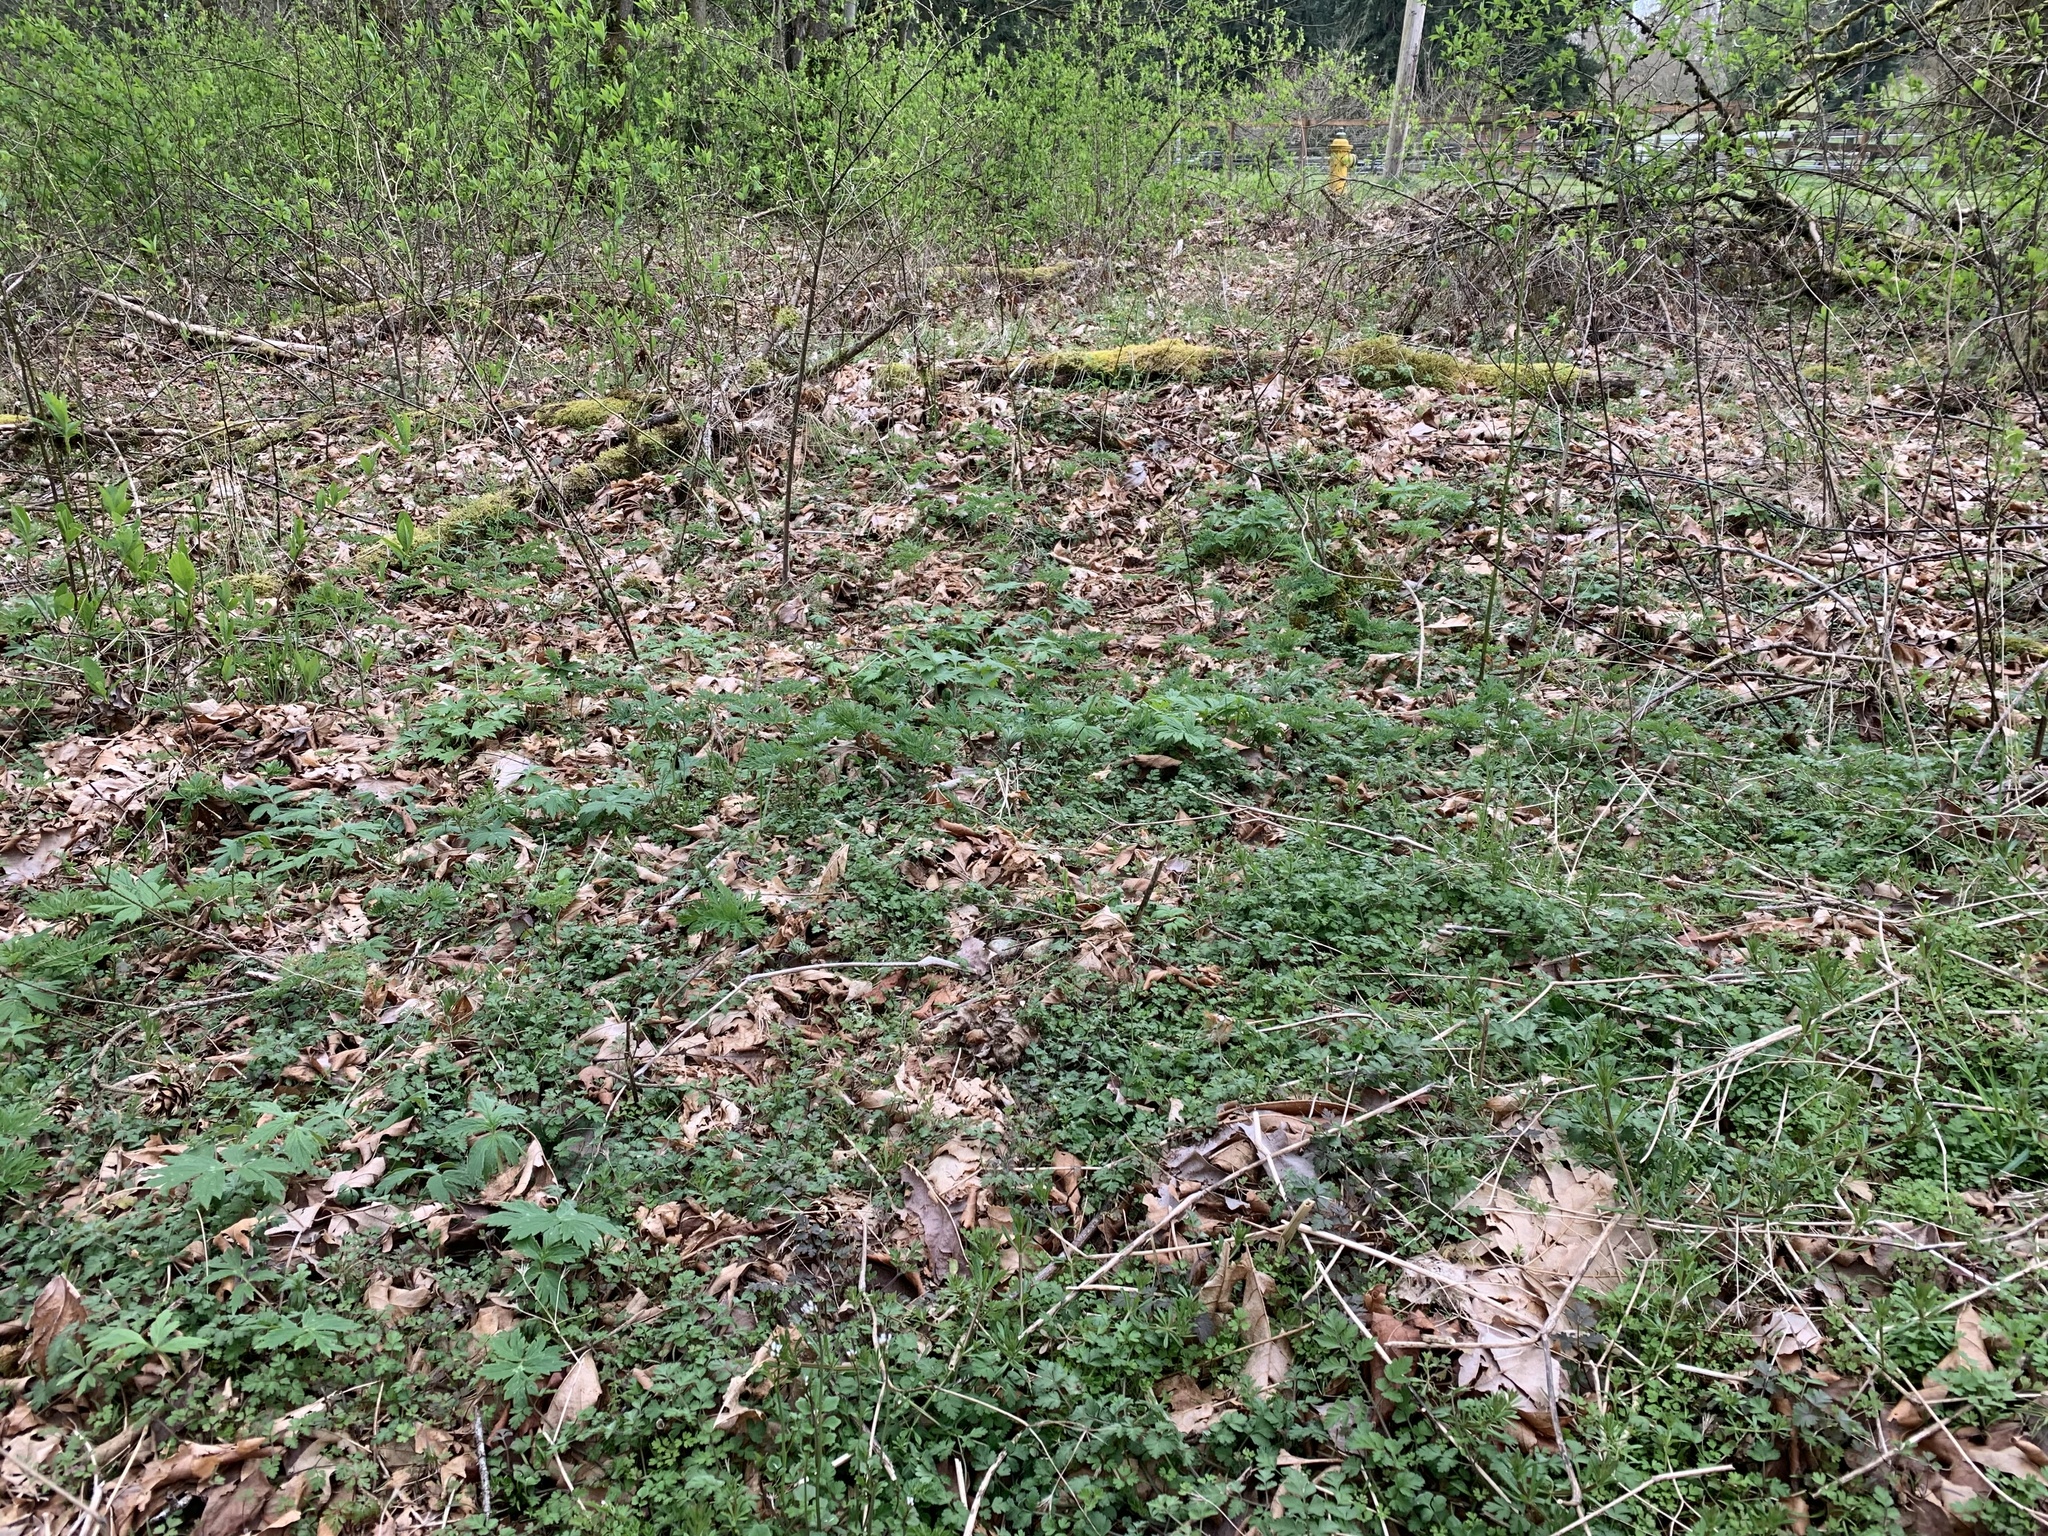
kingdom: Plantae
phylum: Tracheophyta
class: Magnoliopsida
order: Apiales
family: Apiaceae
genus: Chaerophyllum
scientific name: Chaerophyllum temulum
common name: Rough chervil
